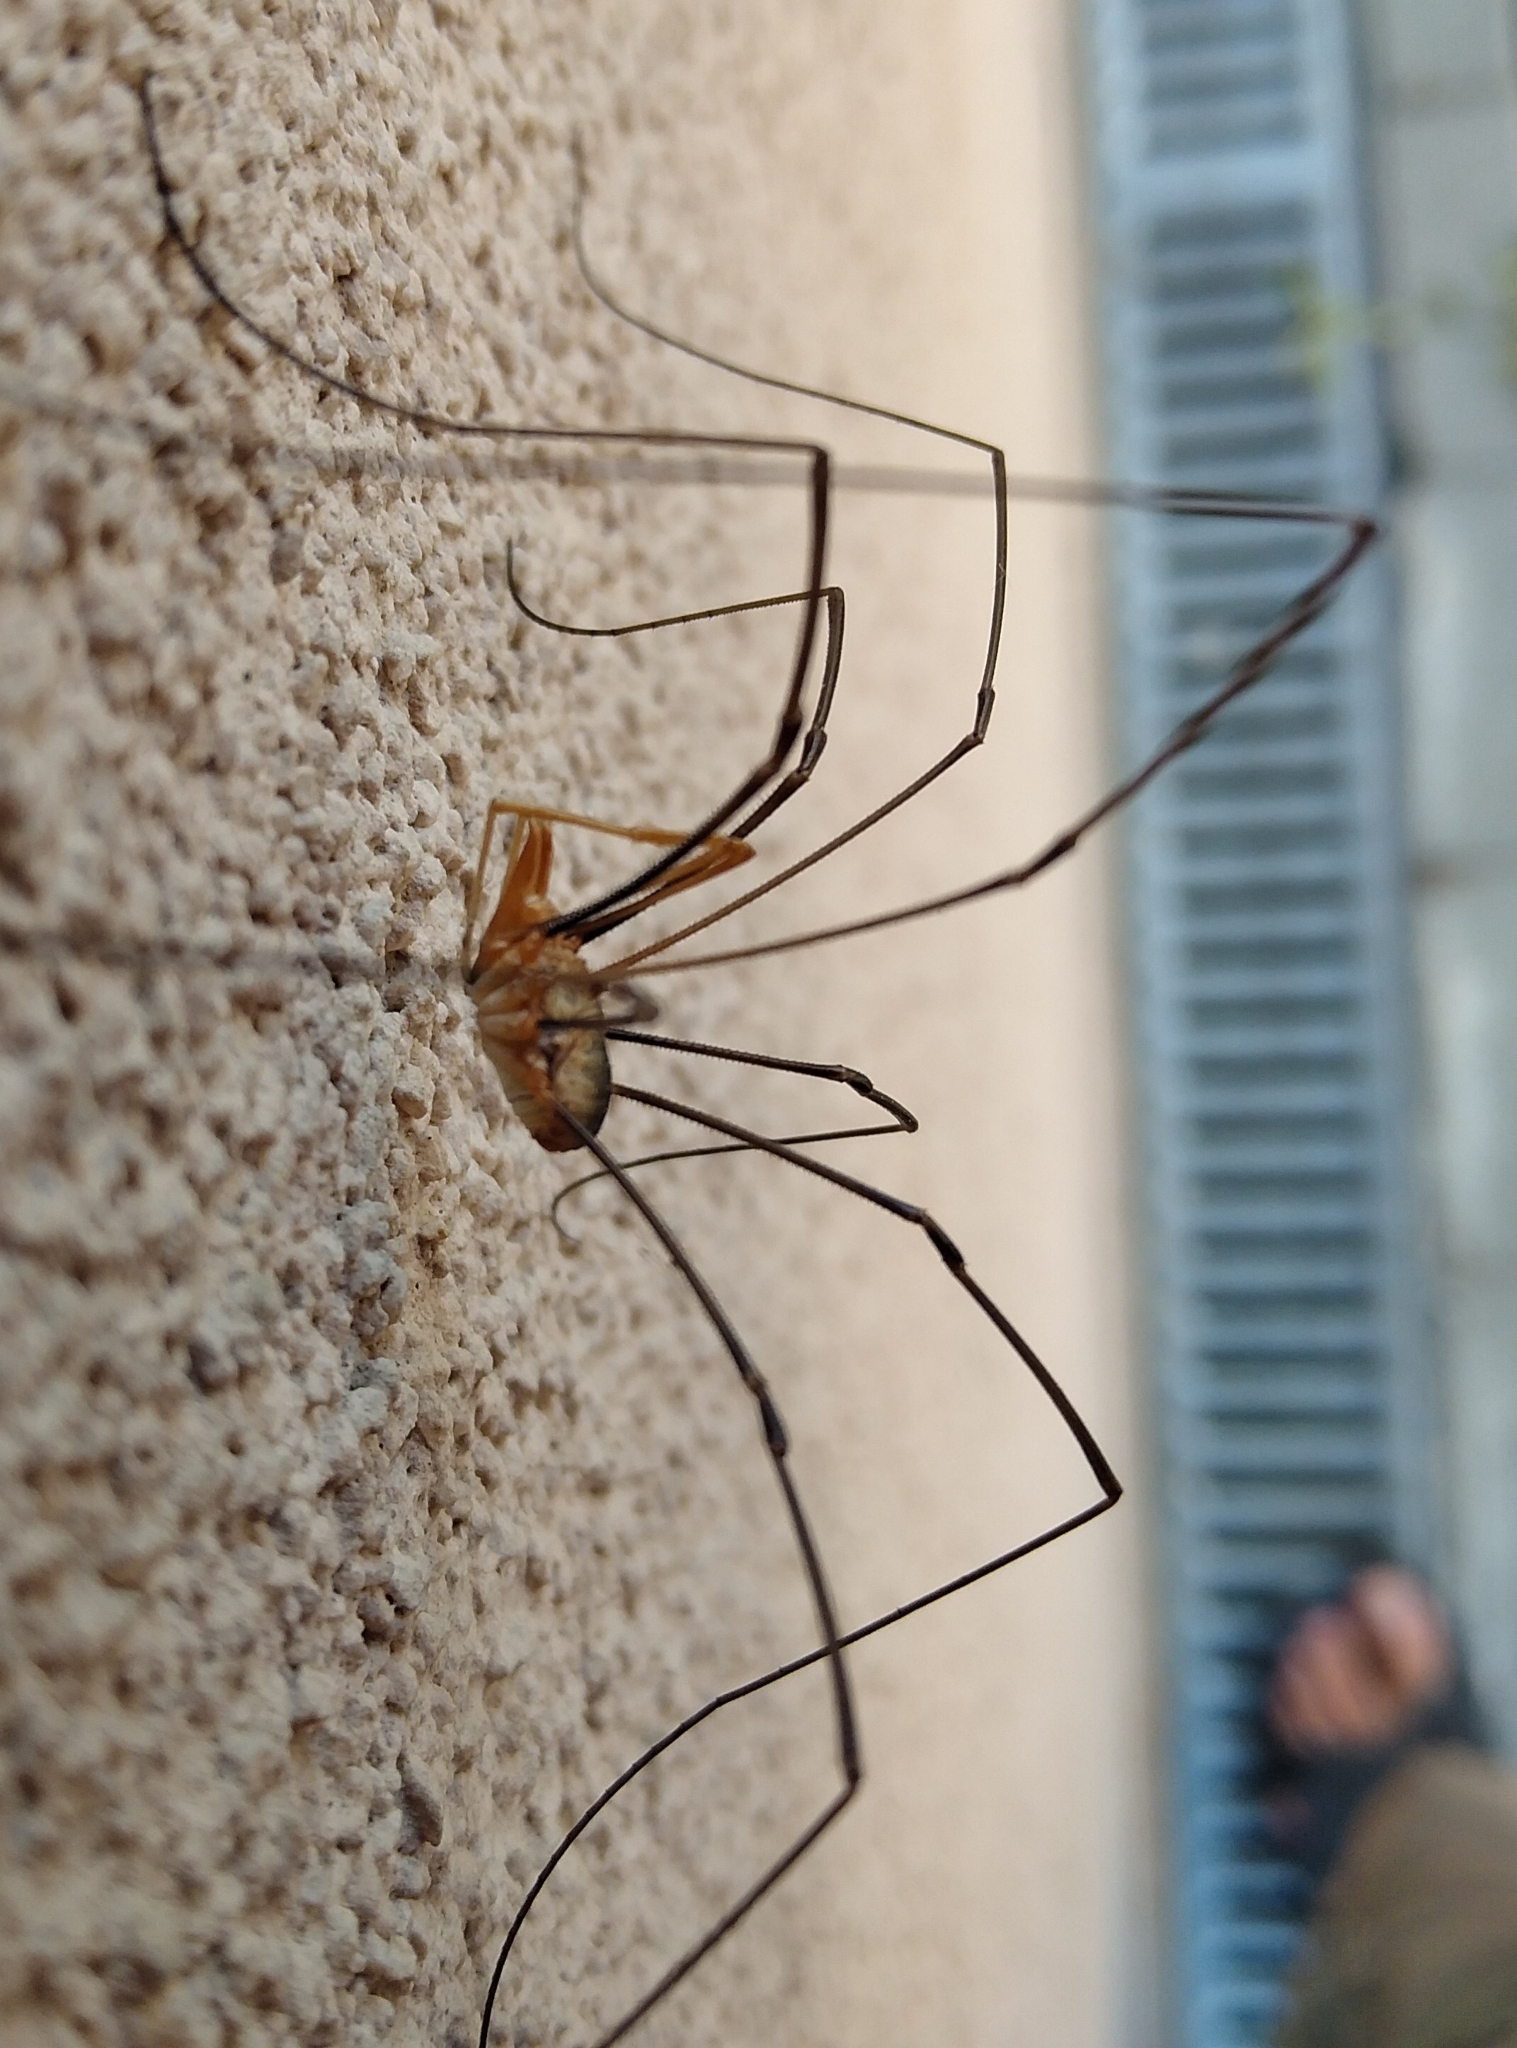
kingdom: Animalia
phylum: Arthropoda
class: Arachnida
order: Opiliones
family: Phalangiidae
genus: Phalangium
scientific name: Phalangium opilio
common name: Daddy longleg
